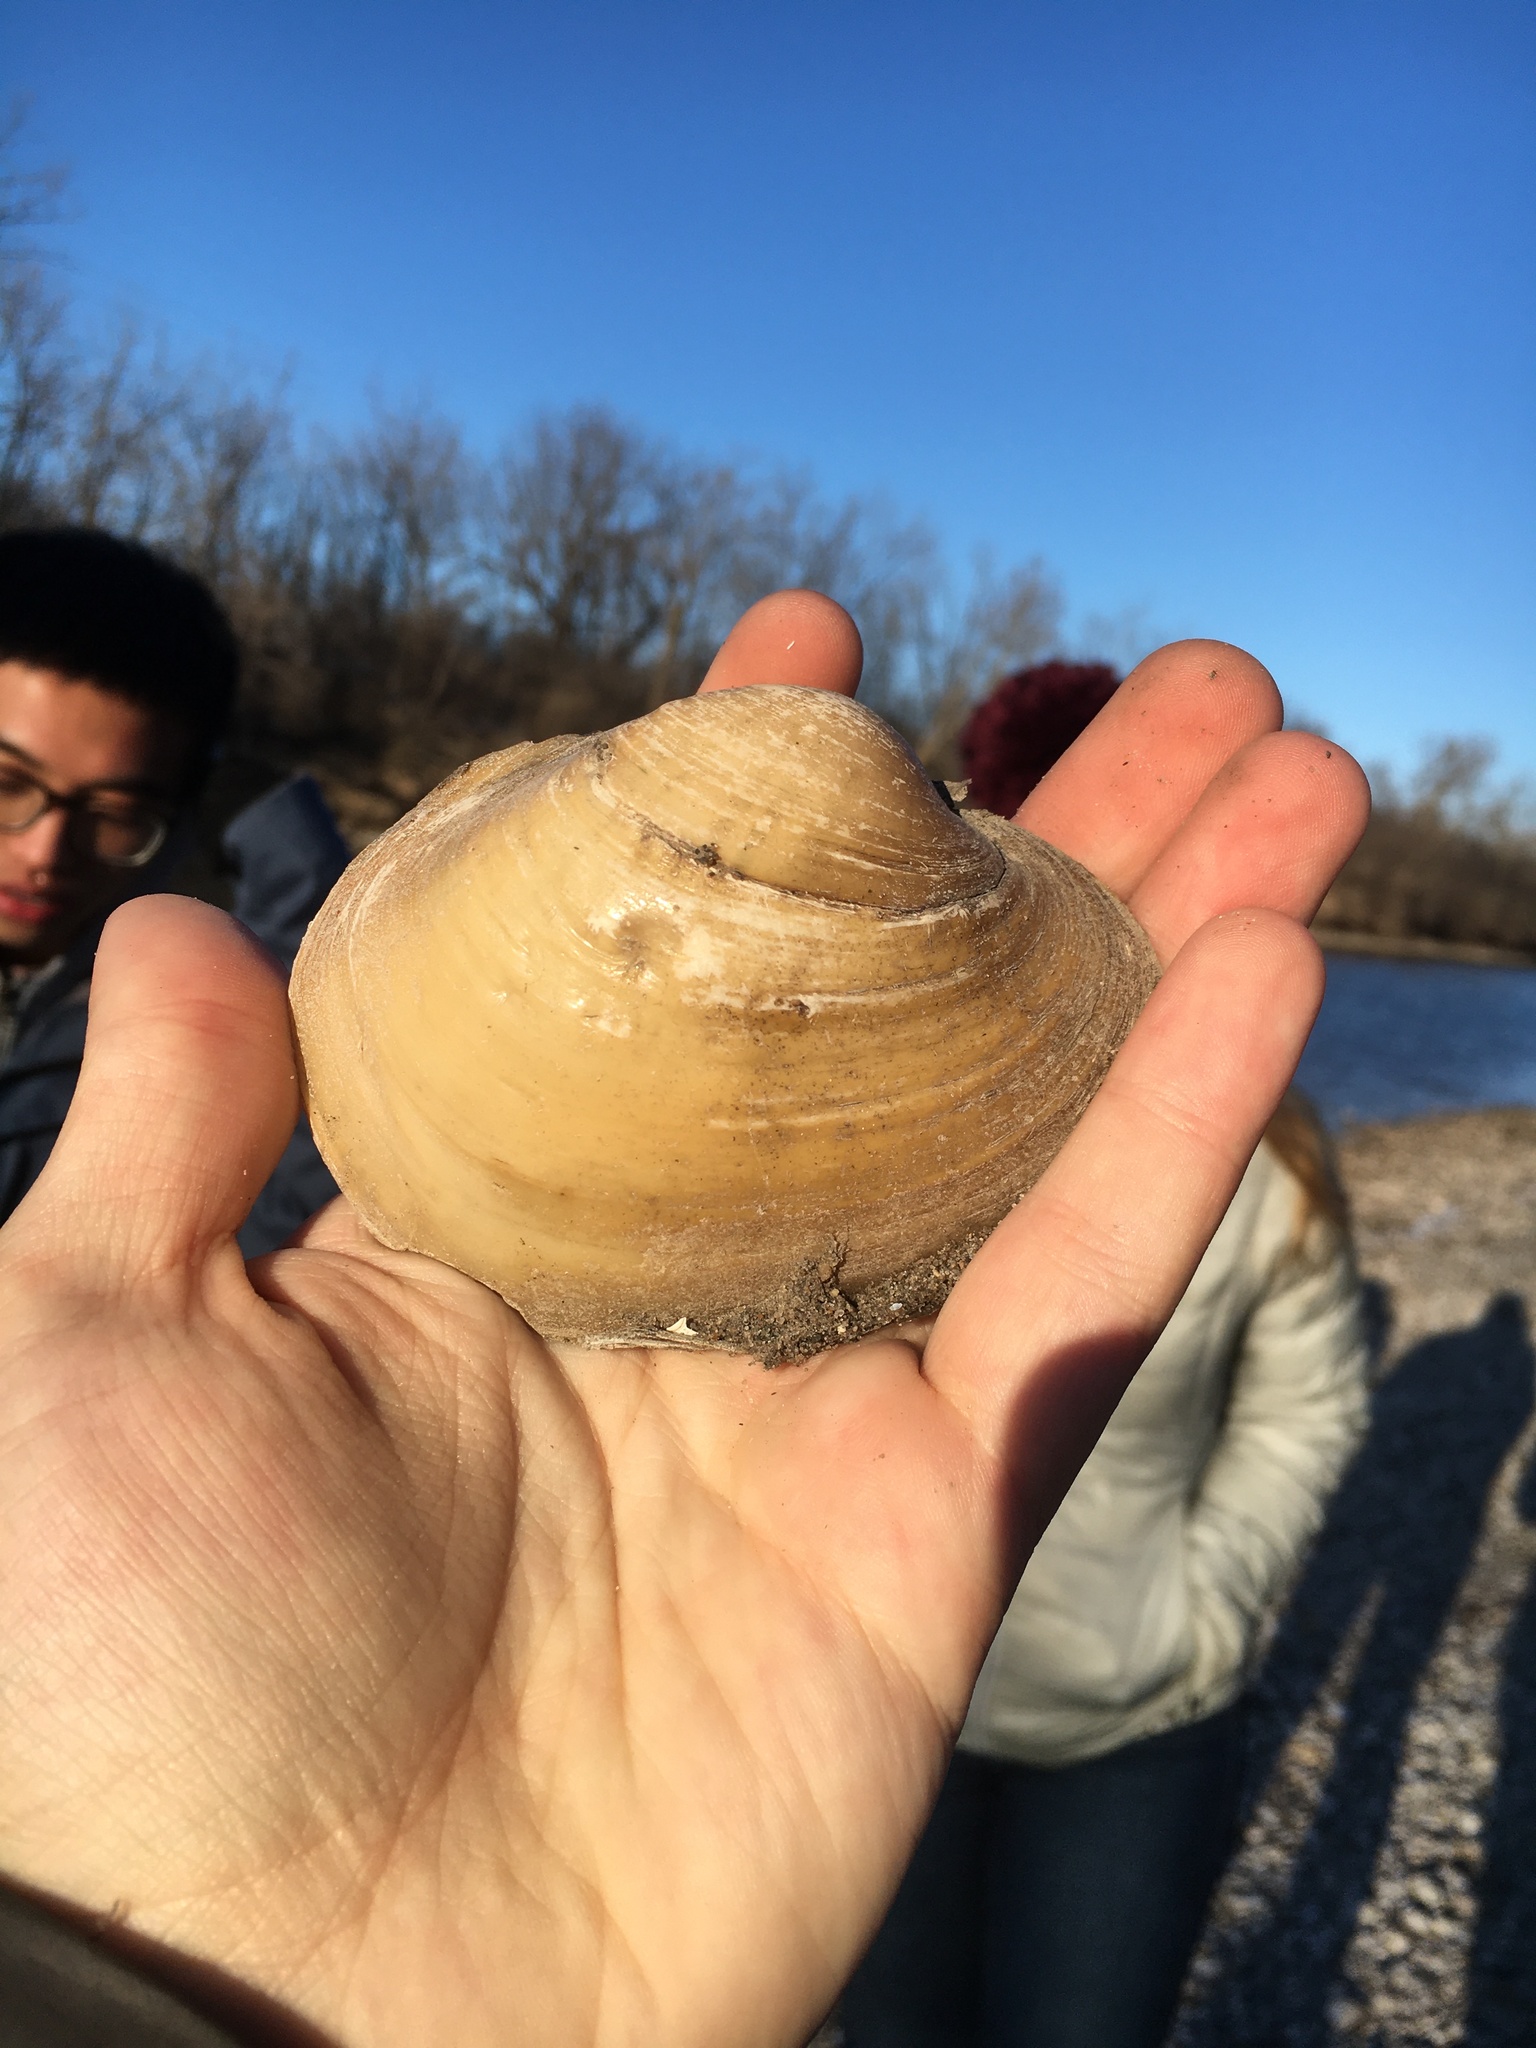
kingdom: Animalia
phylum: Mollusca
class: Bivalvia
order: Unionida
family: Unionidae
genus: Lampsilis
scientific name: Lampsilis cardium
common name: Plain pocketbook
